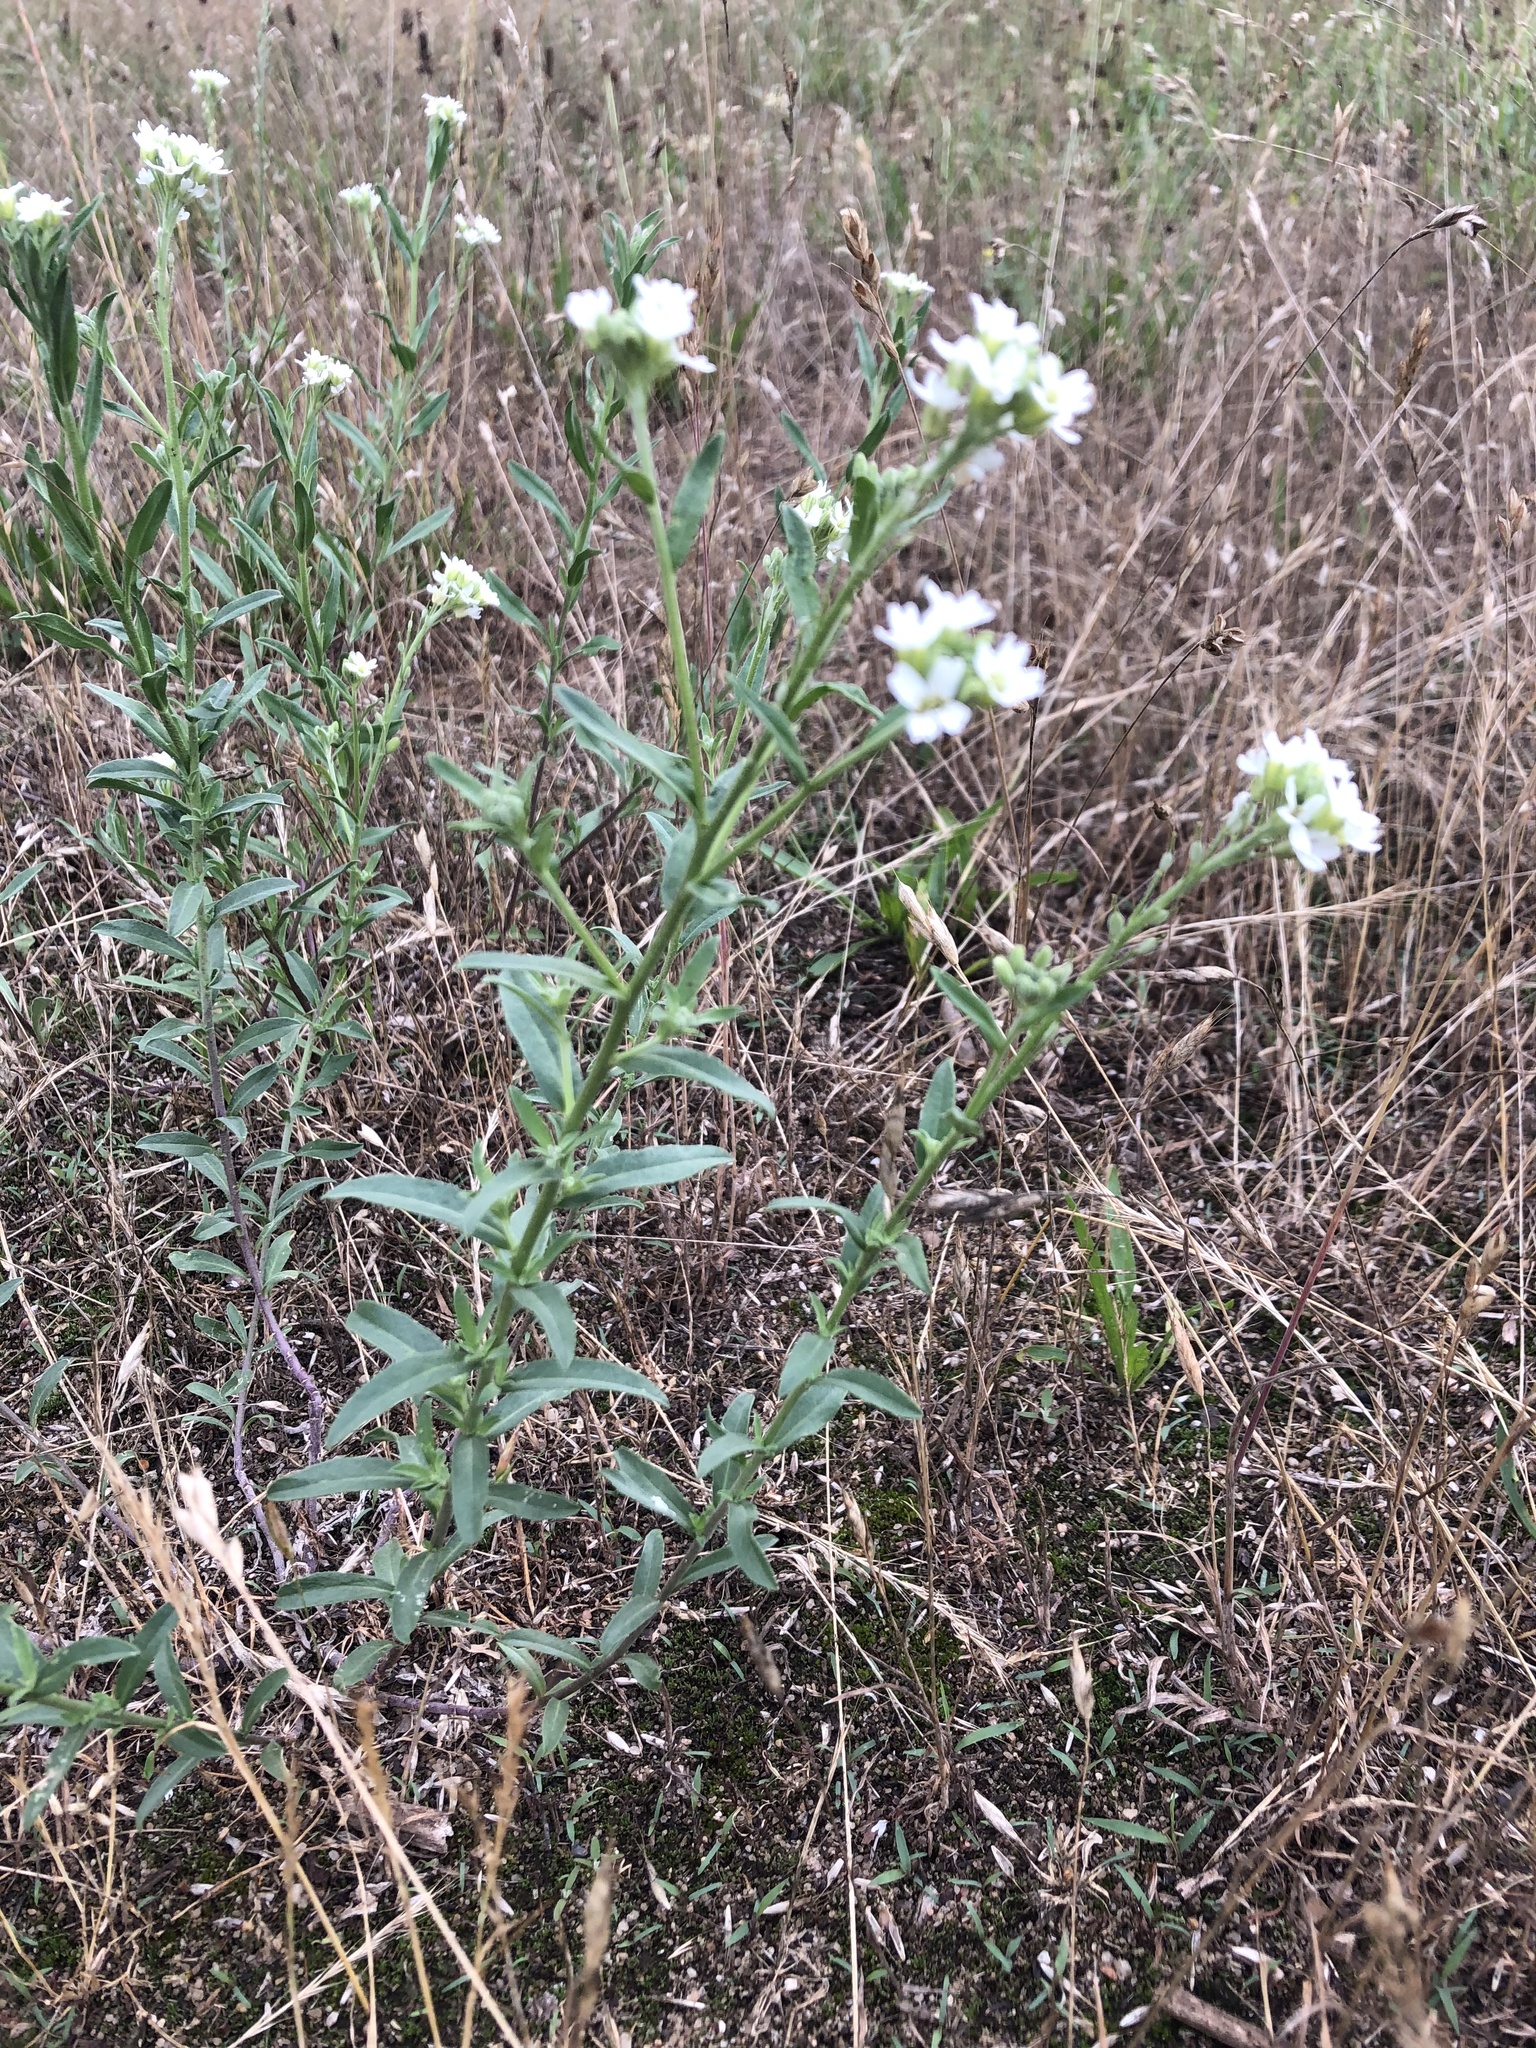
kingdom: Plantae
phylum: Tracheophyta
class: Magnoliopsida
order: Brassicales
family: Brassicaceae
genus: Berteroa
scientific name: Berteroa incana
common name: Hoary alison
